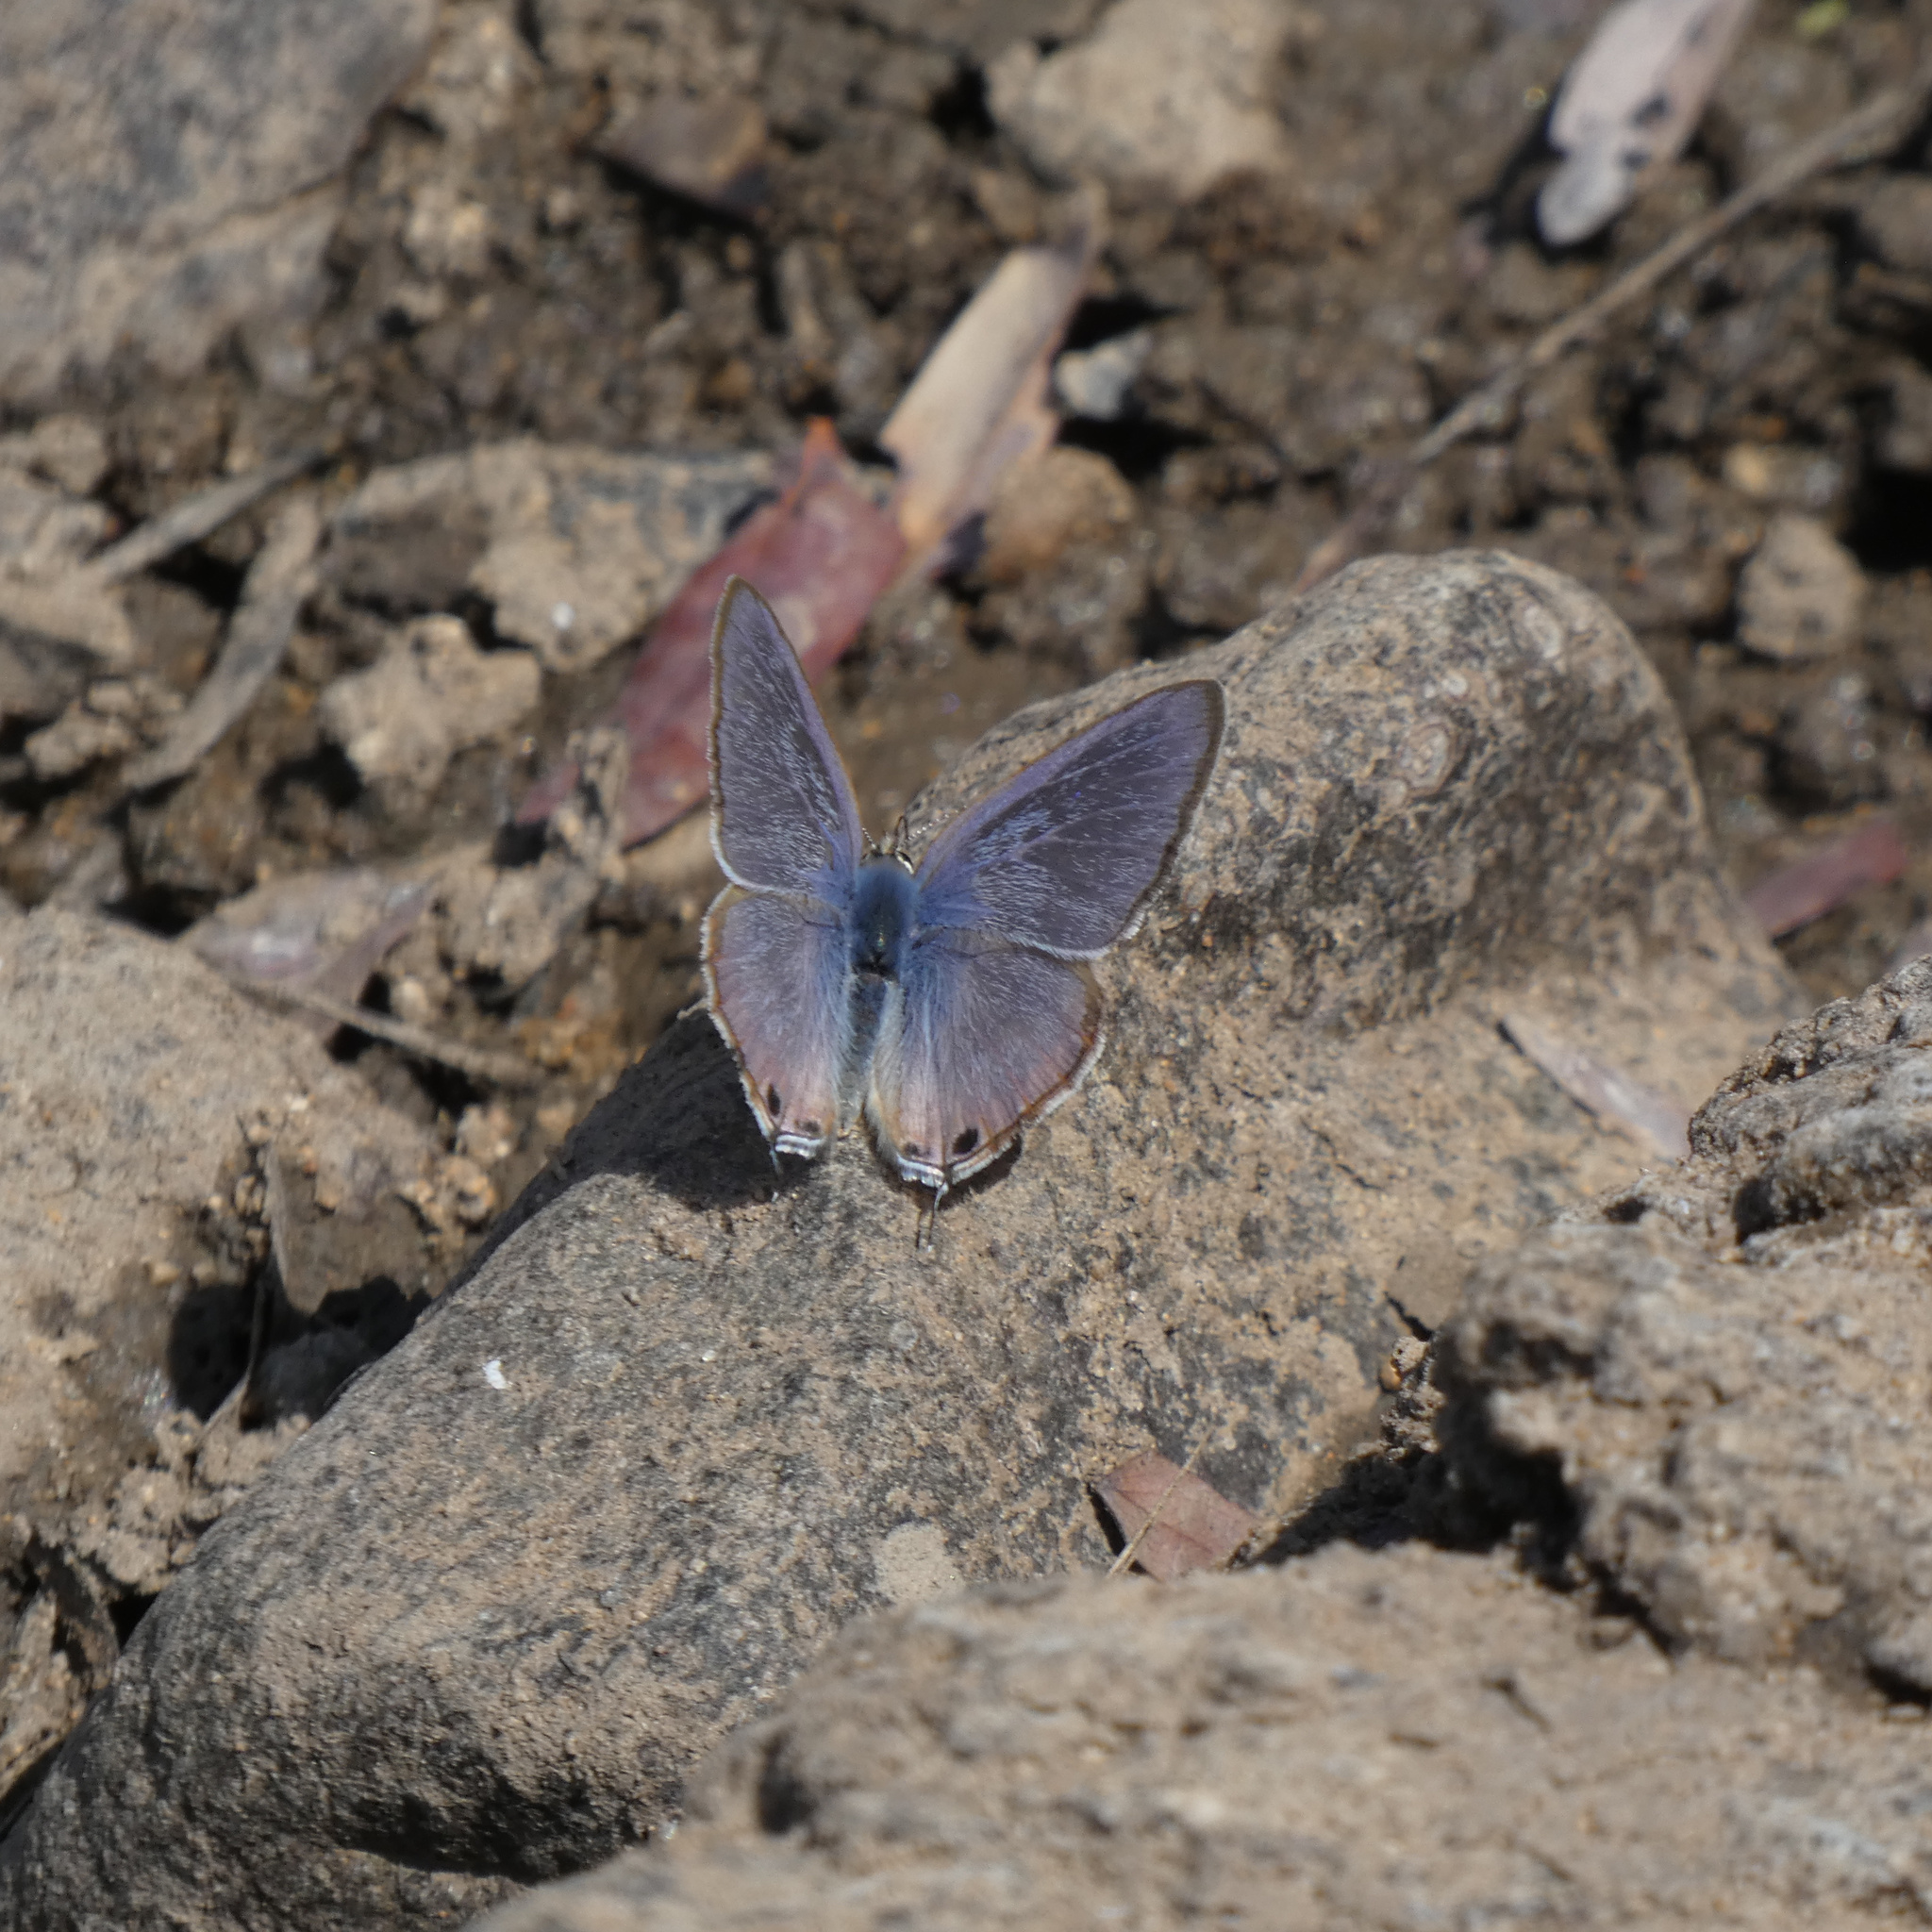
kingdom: Animalia
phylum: Arthropoda
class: Insecta
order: Lepidoptera
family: Lycaenidae
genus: Lampides
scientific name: Lampides boeticus
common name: Long-tailed blue
